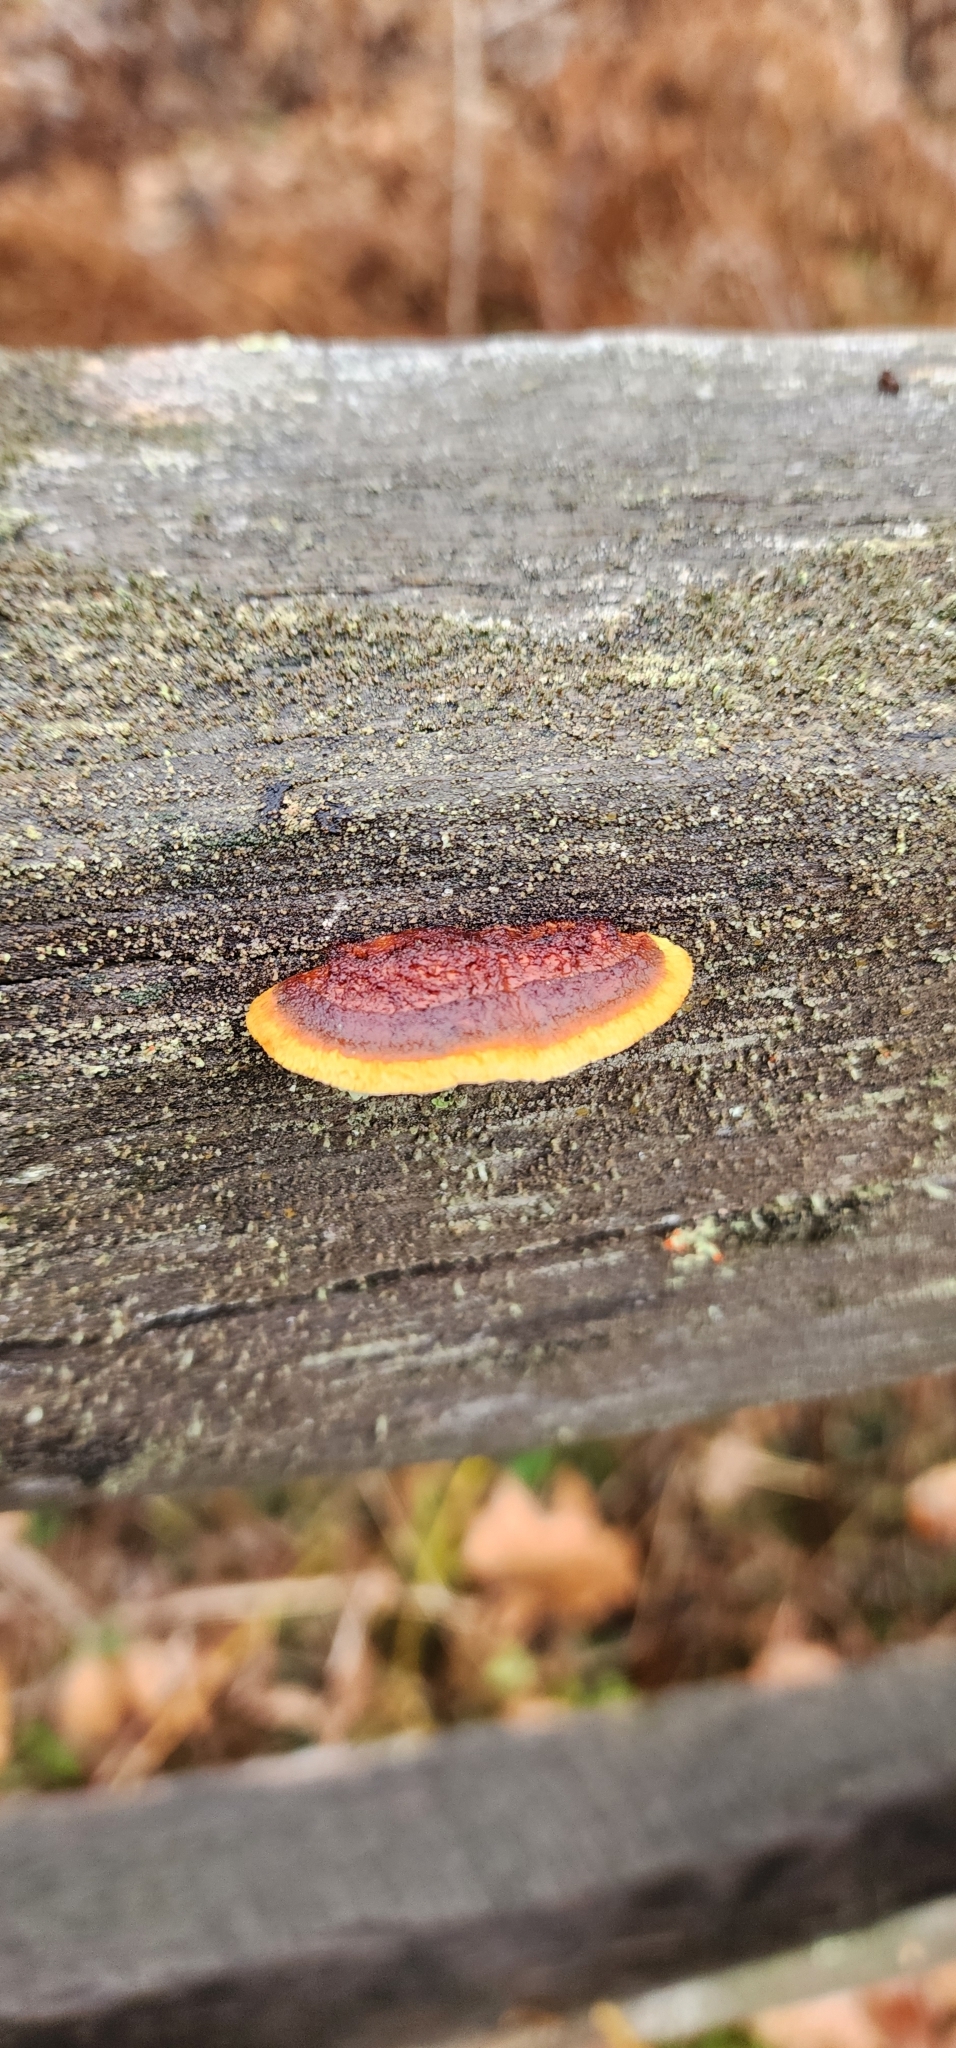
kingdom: Fungi
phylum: Basidiomycota
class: Agaricomycetes
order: Gloeophyllales
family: Gloeophyllaceae
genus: Gloeophyllum
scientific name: Gloeophyllum sepiarium
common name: Conifer mazegill
